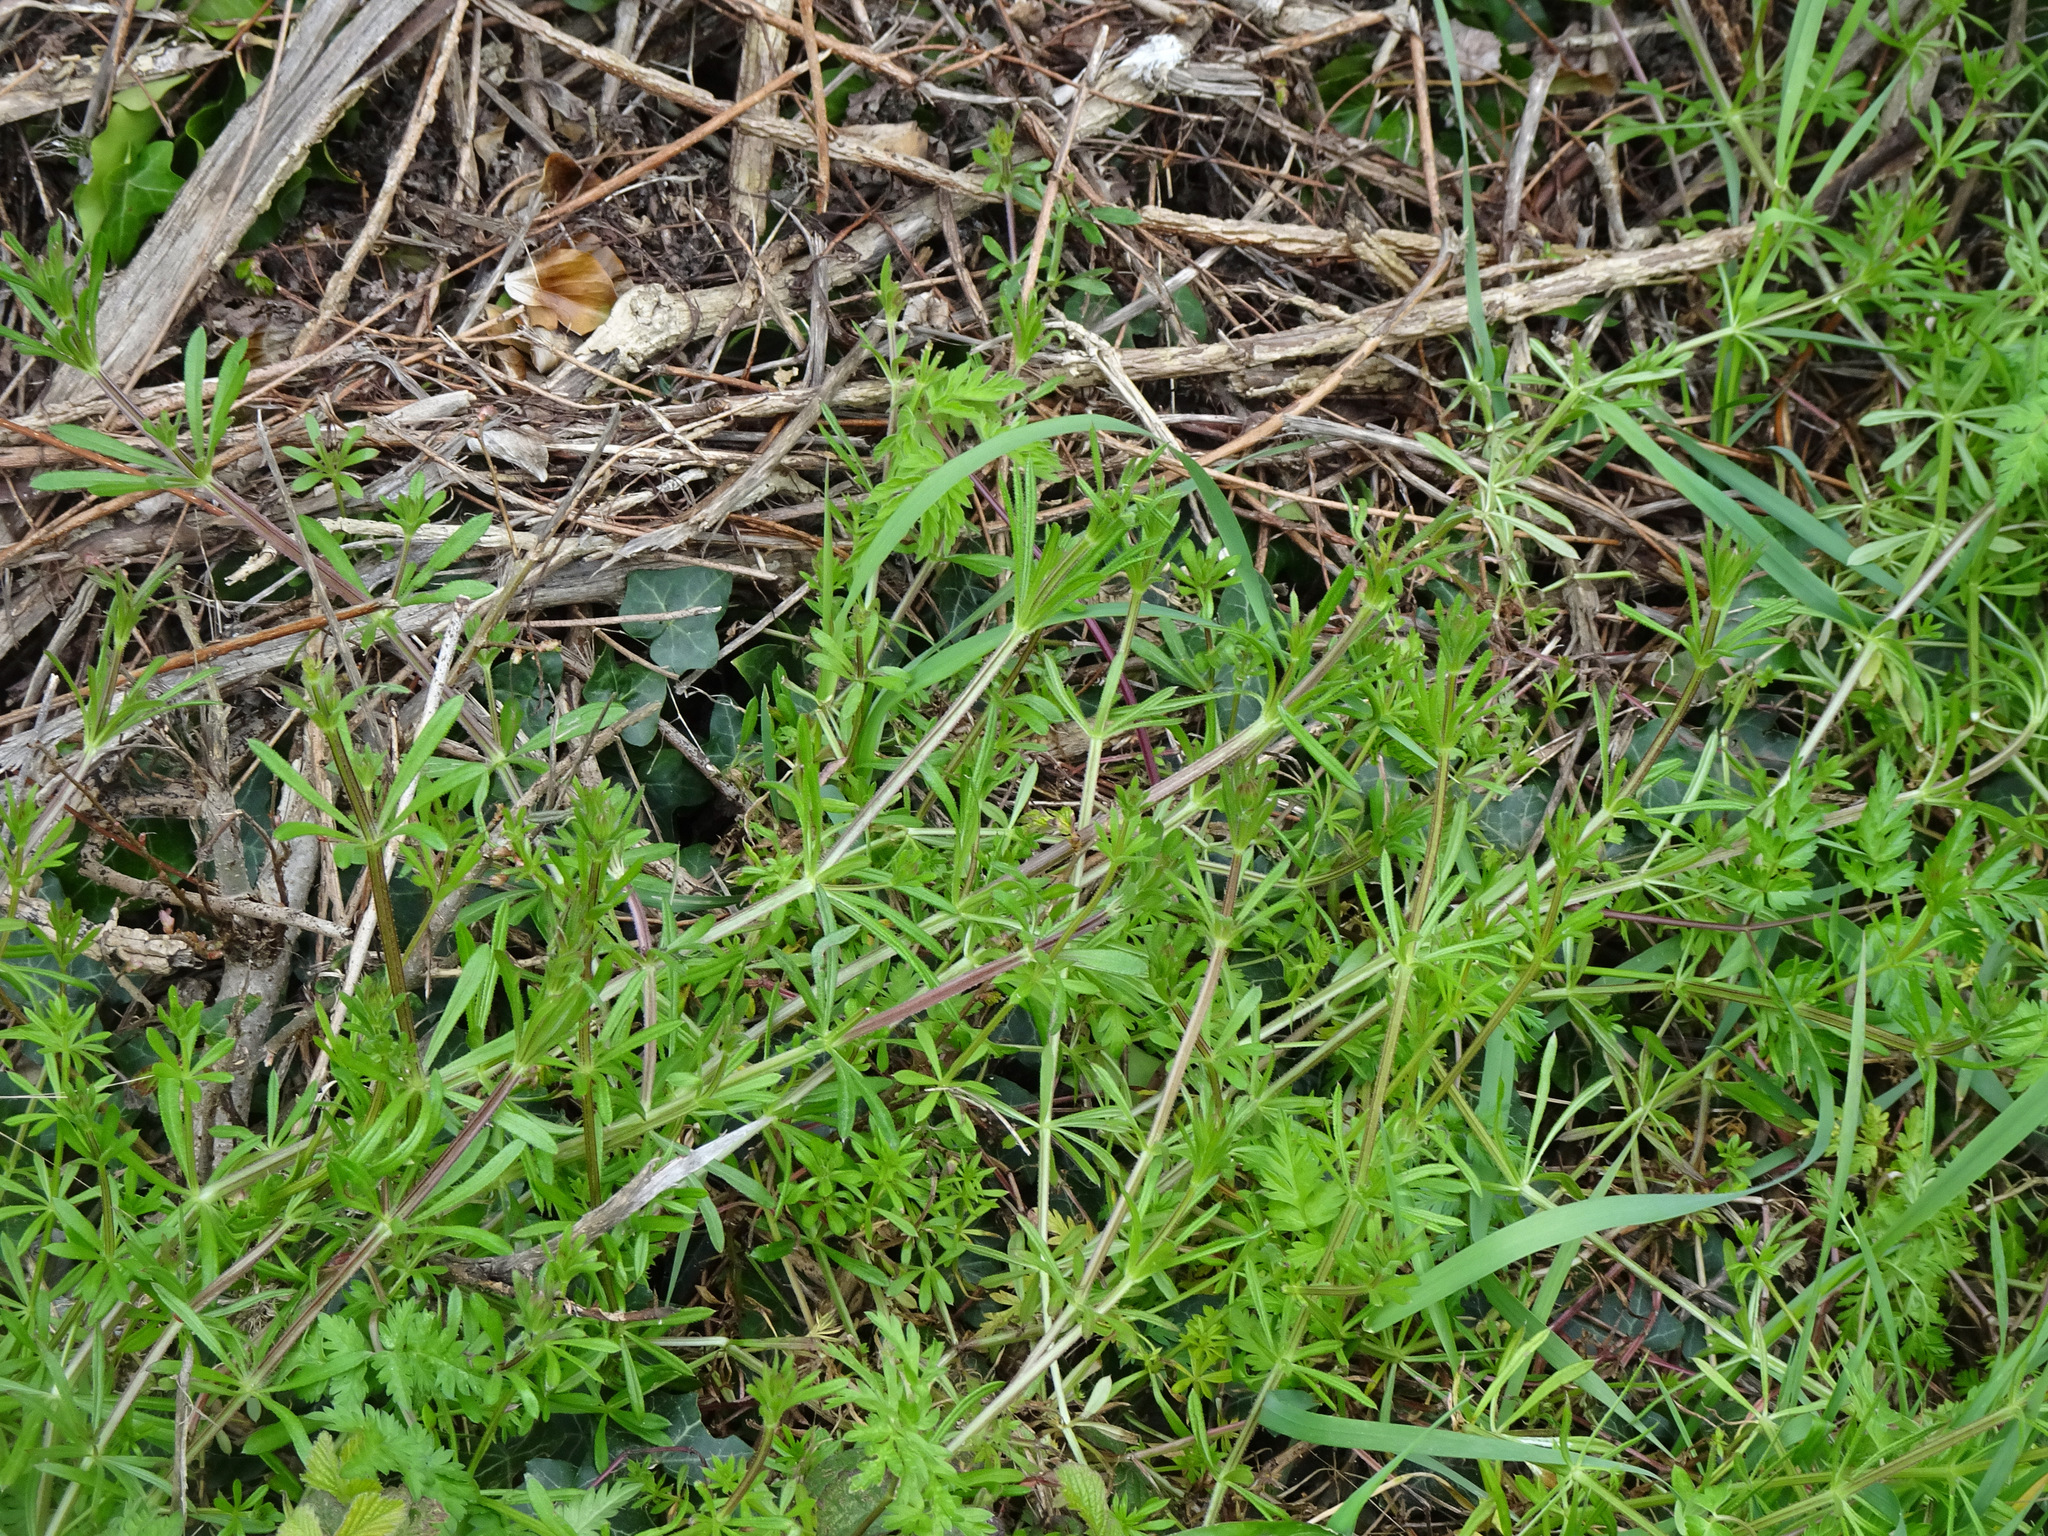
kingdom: Plantae
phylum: Tracheophyta
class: Magnoliopsida
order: Gentianales
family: Rubiaceae
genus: Galium
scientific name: Galium aparine
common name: Cleavers
